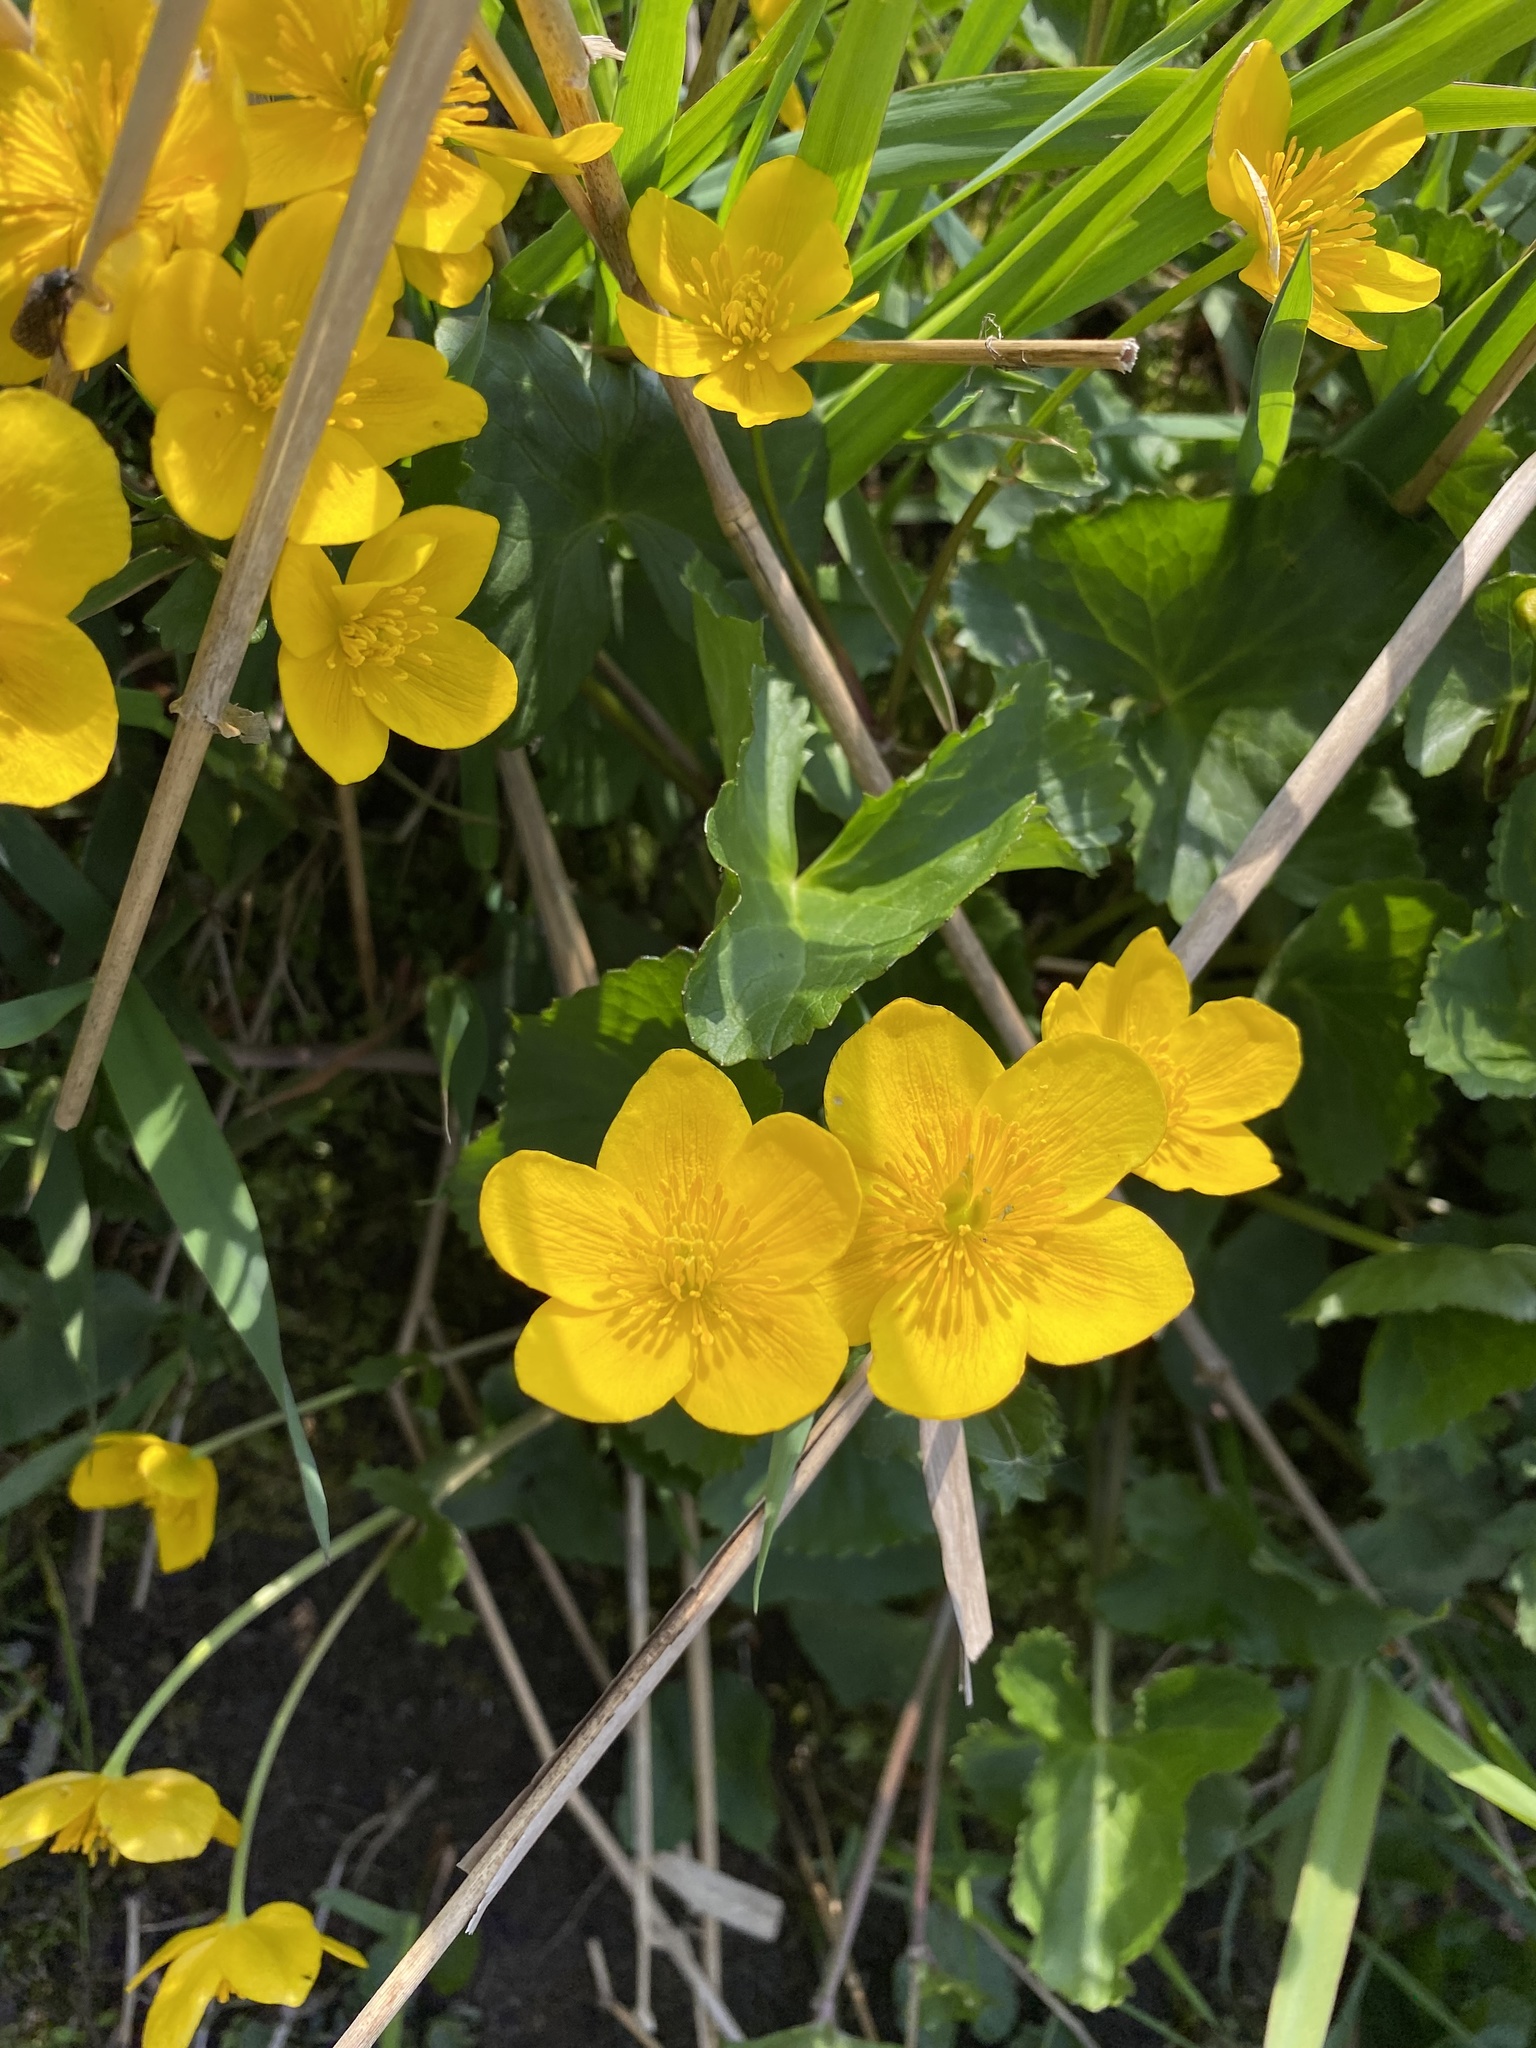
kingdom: Plantae
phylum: Tracheophyta
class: Magnoliopsida
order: Ranunculales
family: Ranunculaceae
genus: Caltha
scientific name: Caltha palustris
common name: Marsh marigold
